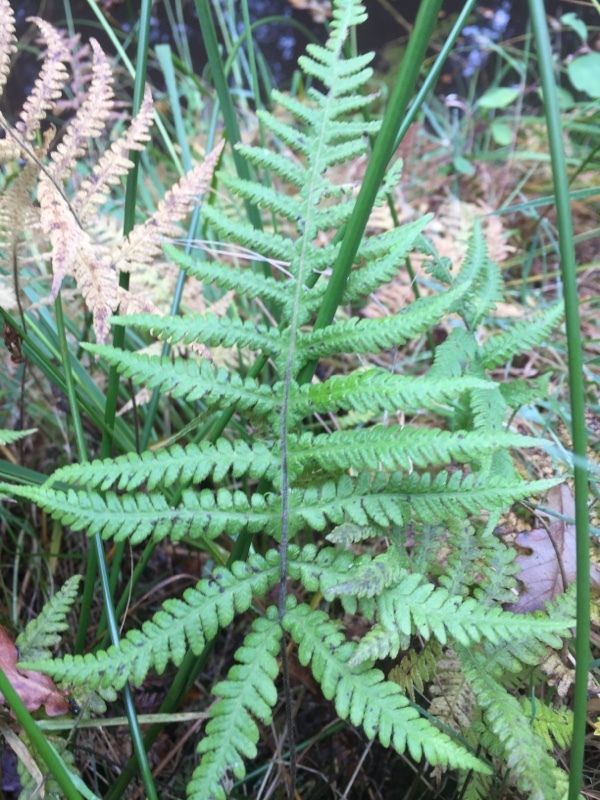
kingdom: Plantae
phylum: Tracheophyta
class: Polypodiopsida
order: Polypodiales
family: Thelypteridaceae
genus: Phegopteris
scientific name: Phegopteris connectilis
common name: Beech fern
